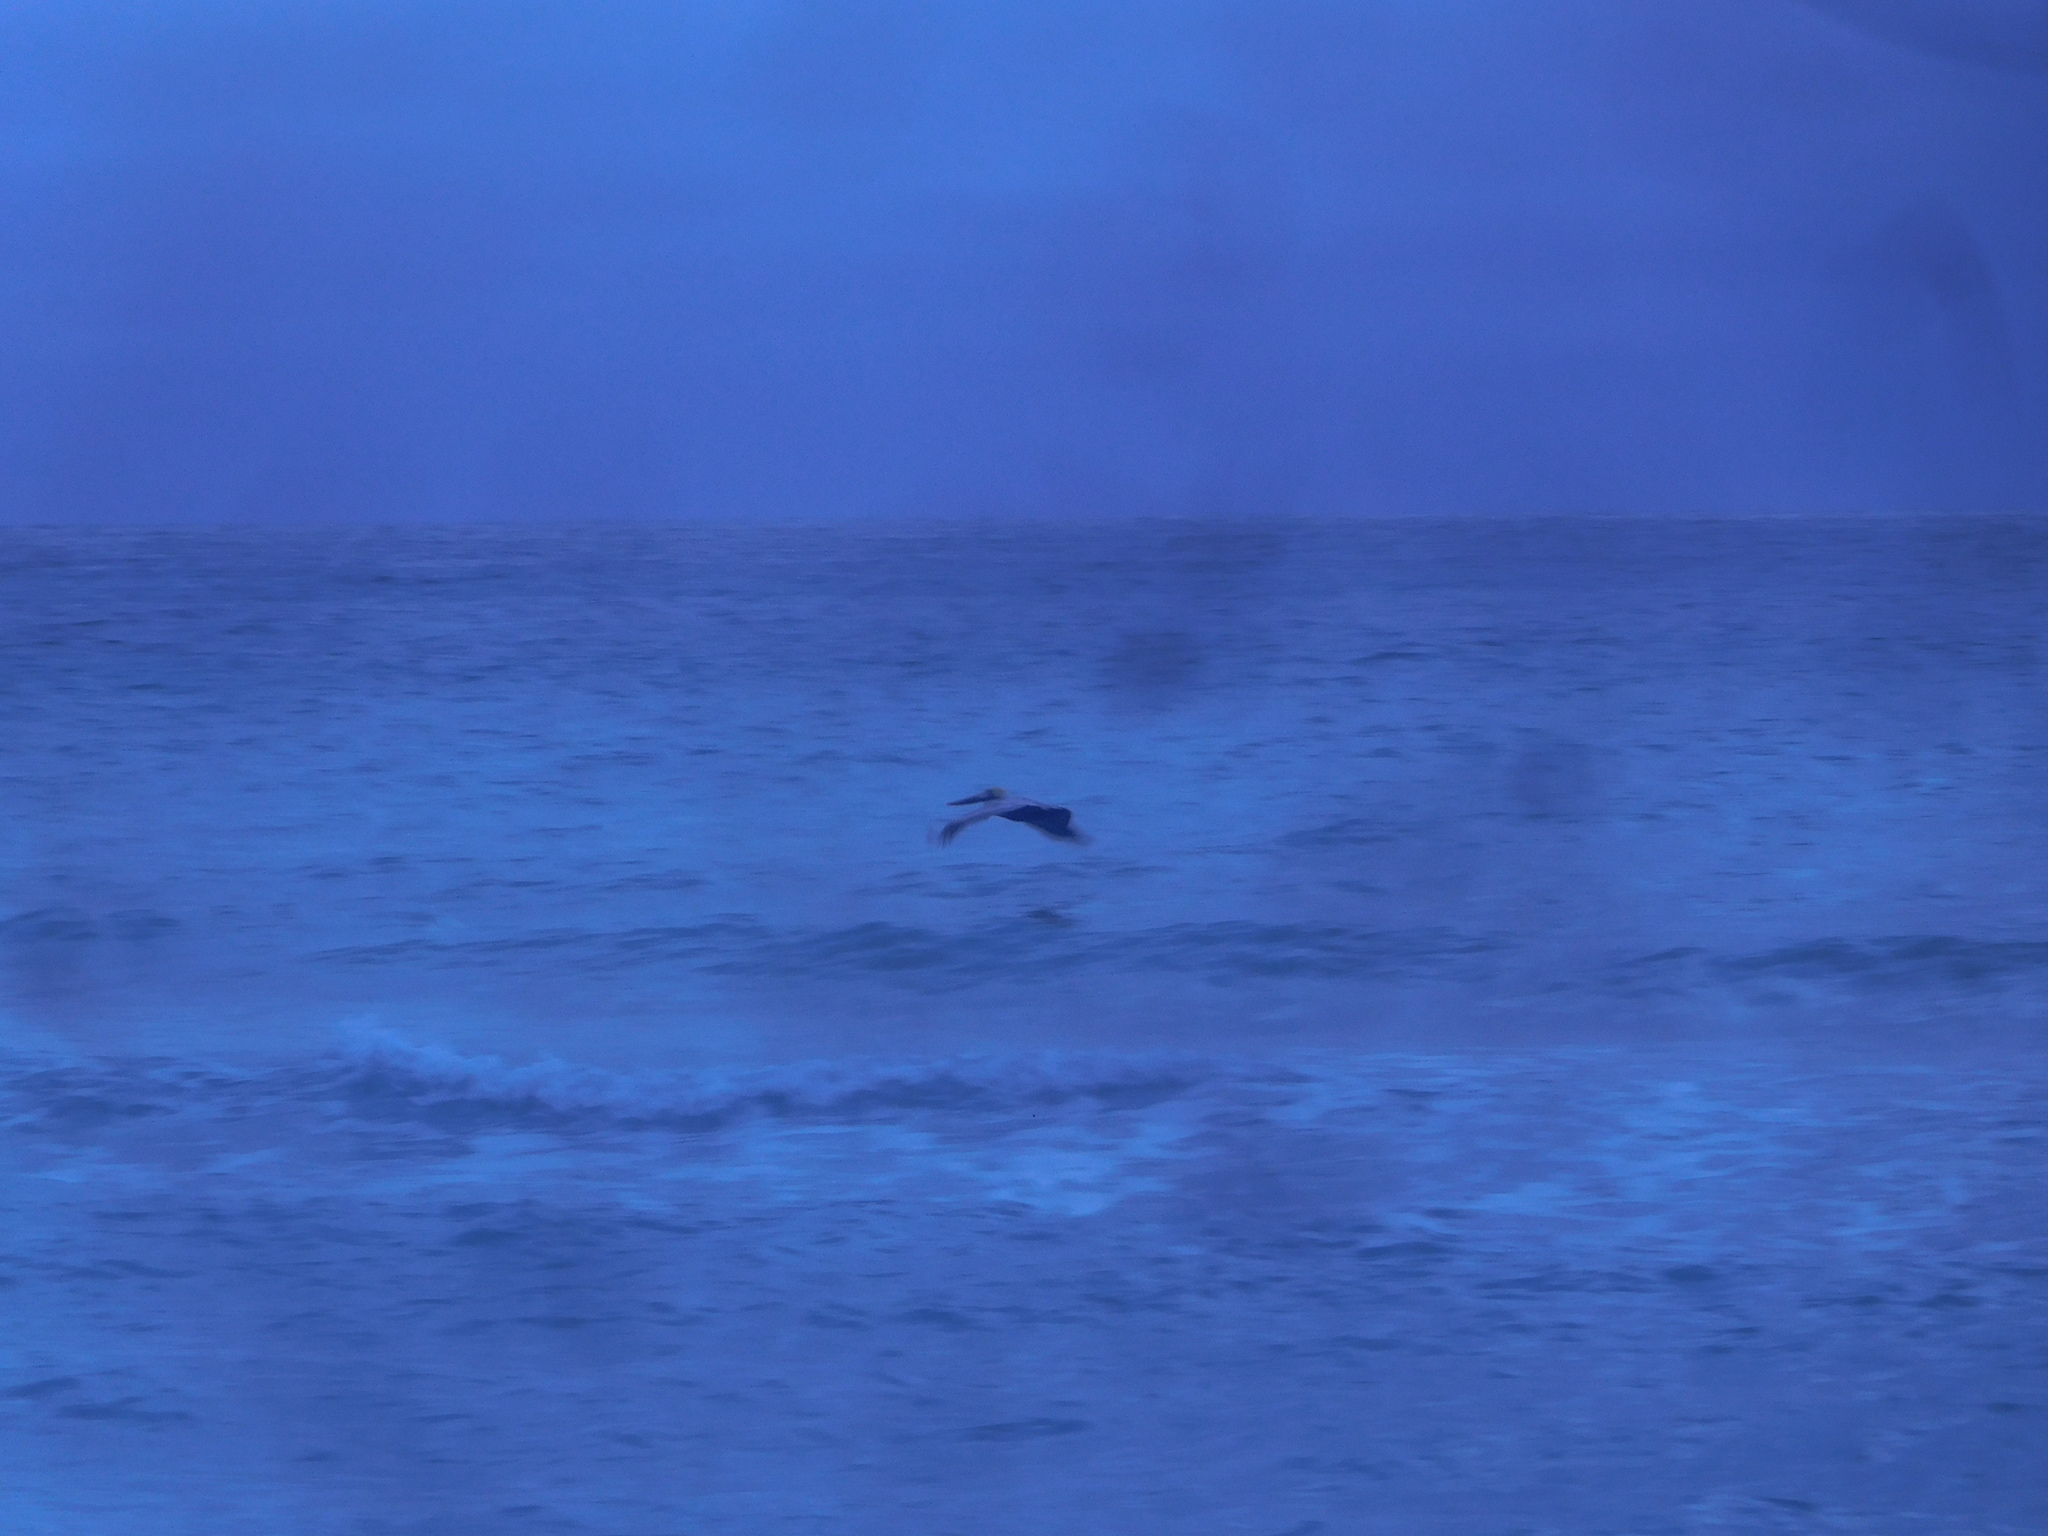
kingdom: Animalia
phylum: Chordata
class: Aves
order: Pelecaniformes
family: Pelecanidae
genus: Pelecanus
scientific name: Pelecanus occidentalis
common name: Brown pelican
